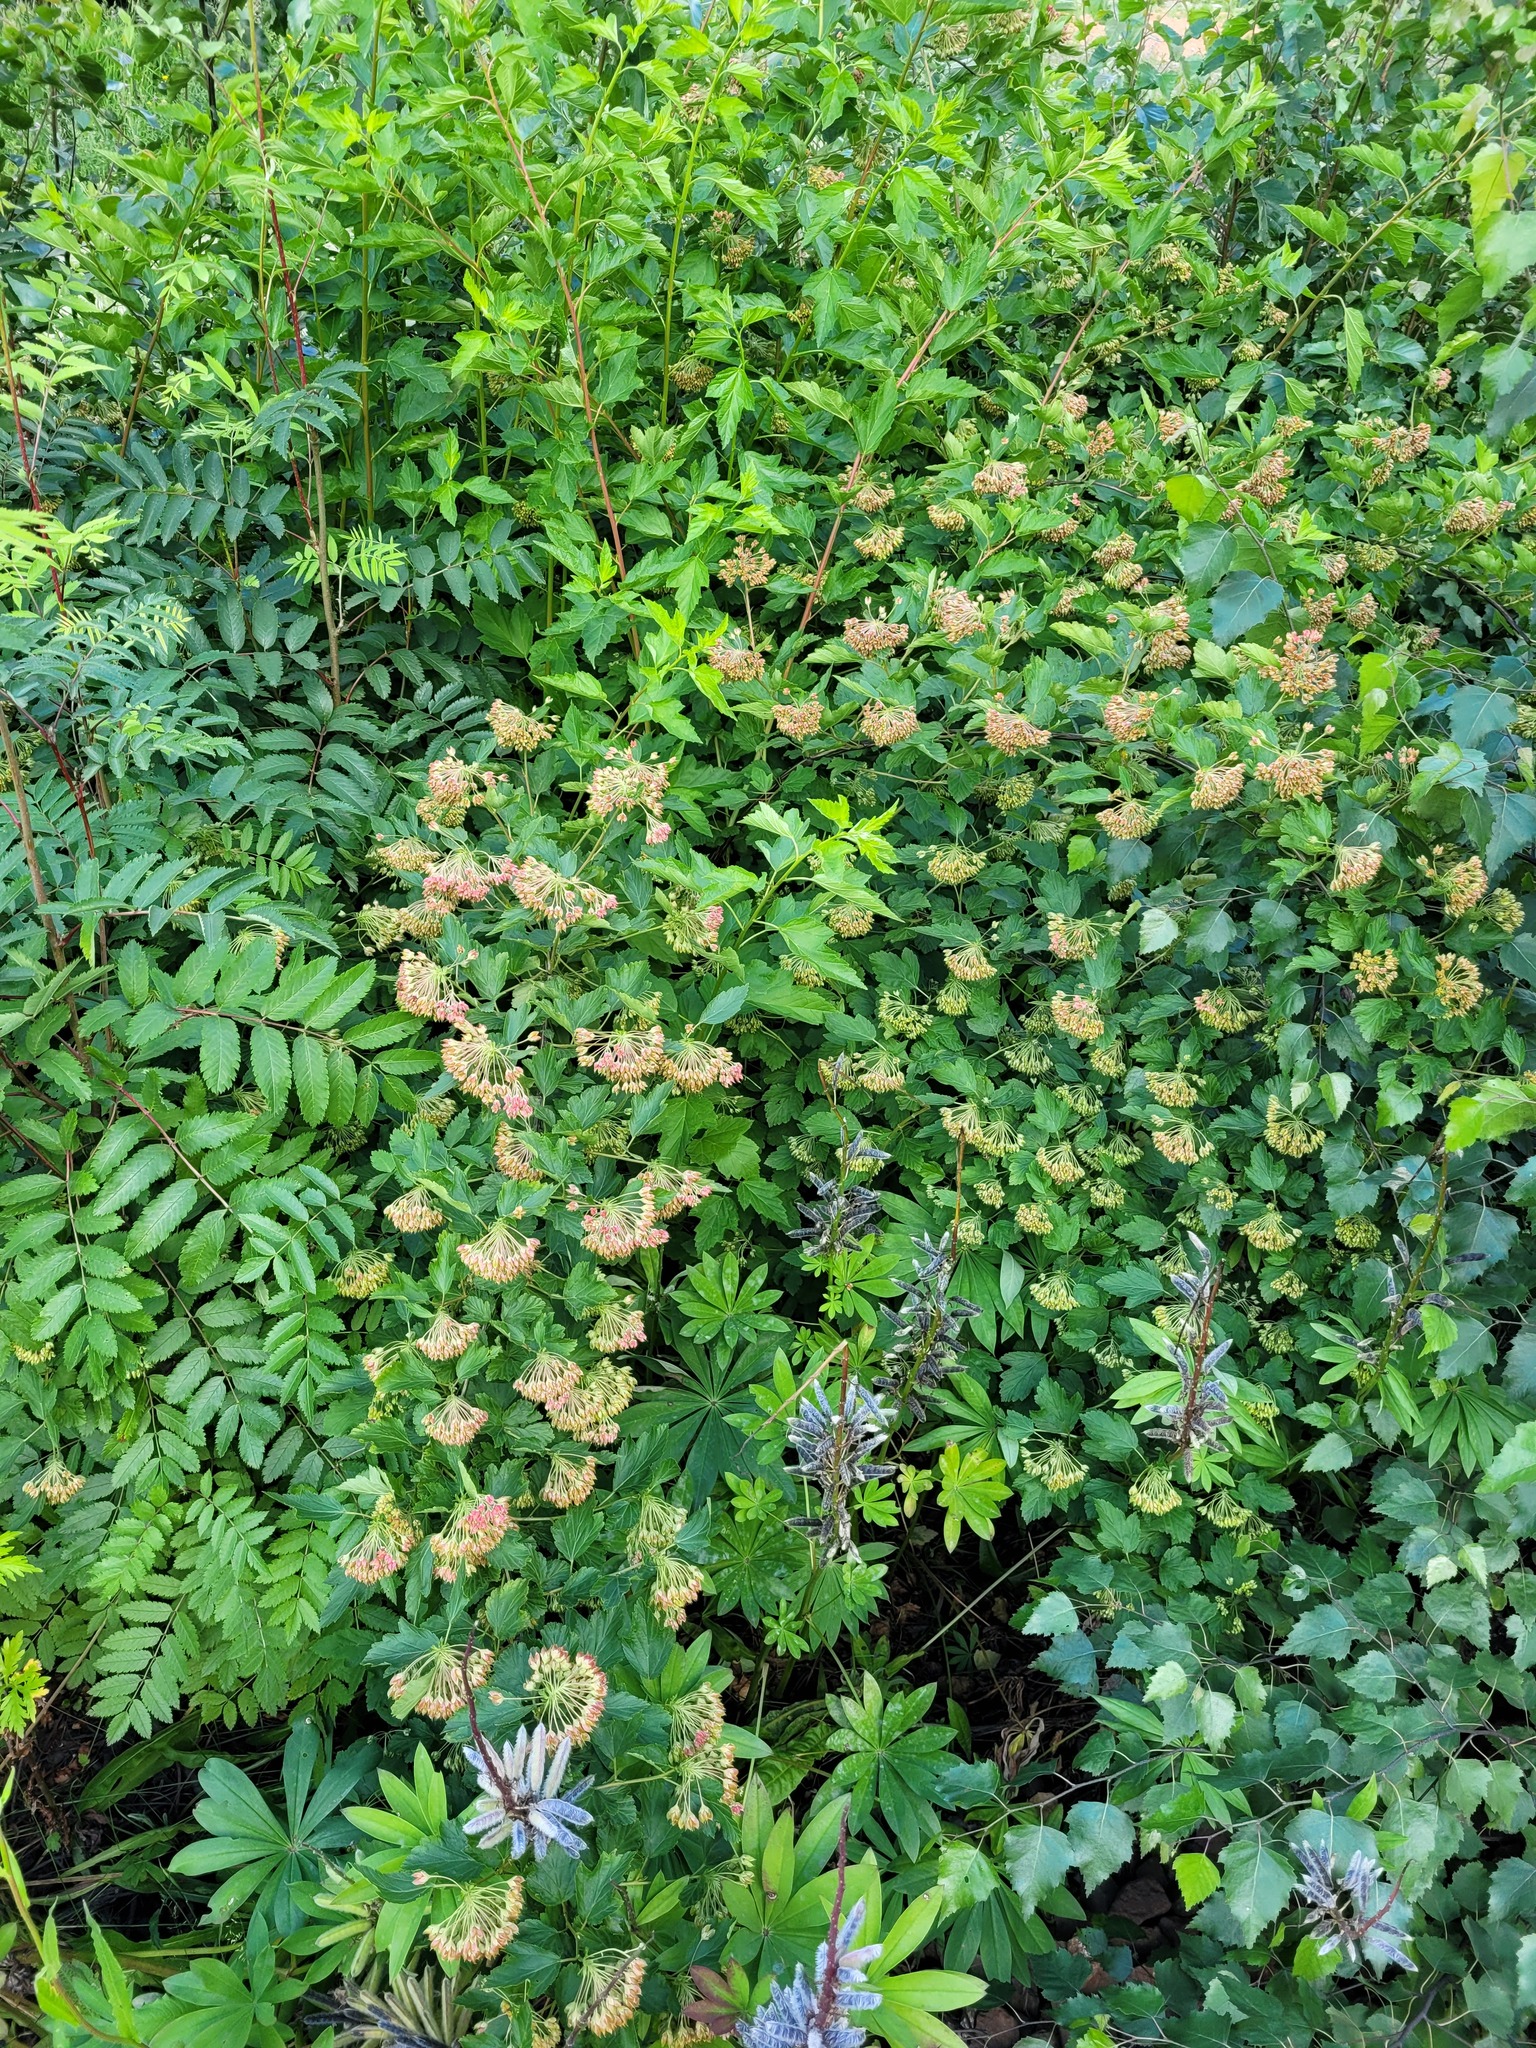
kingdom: Plantae
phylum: Tracheophyta
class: Magnoliopsida
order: Rosales
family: Rosaceae
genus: Physocarpus
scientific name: Physocarpus opulifolius
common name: Ninebark
